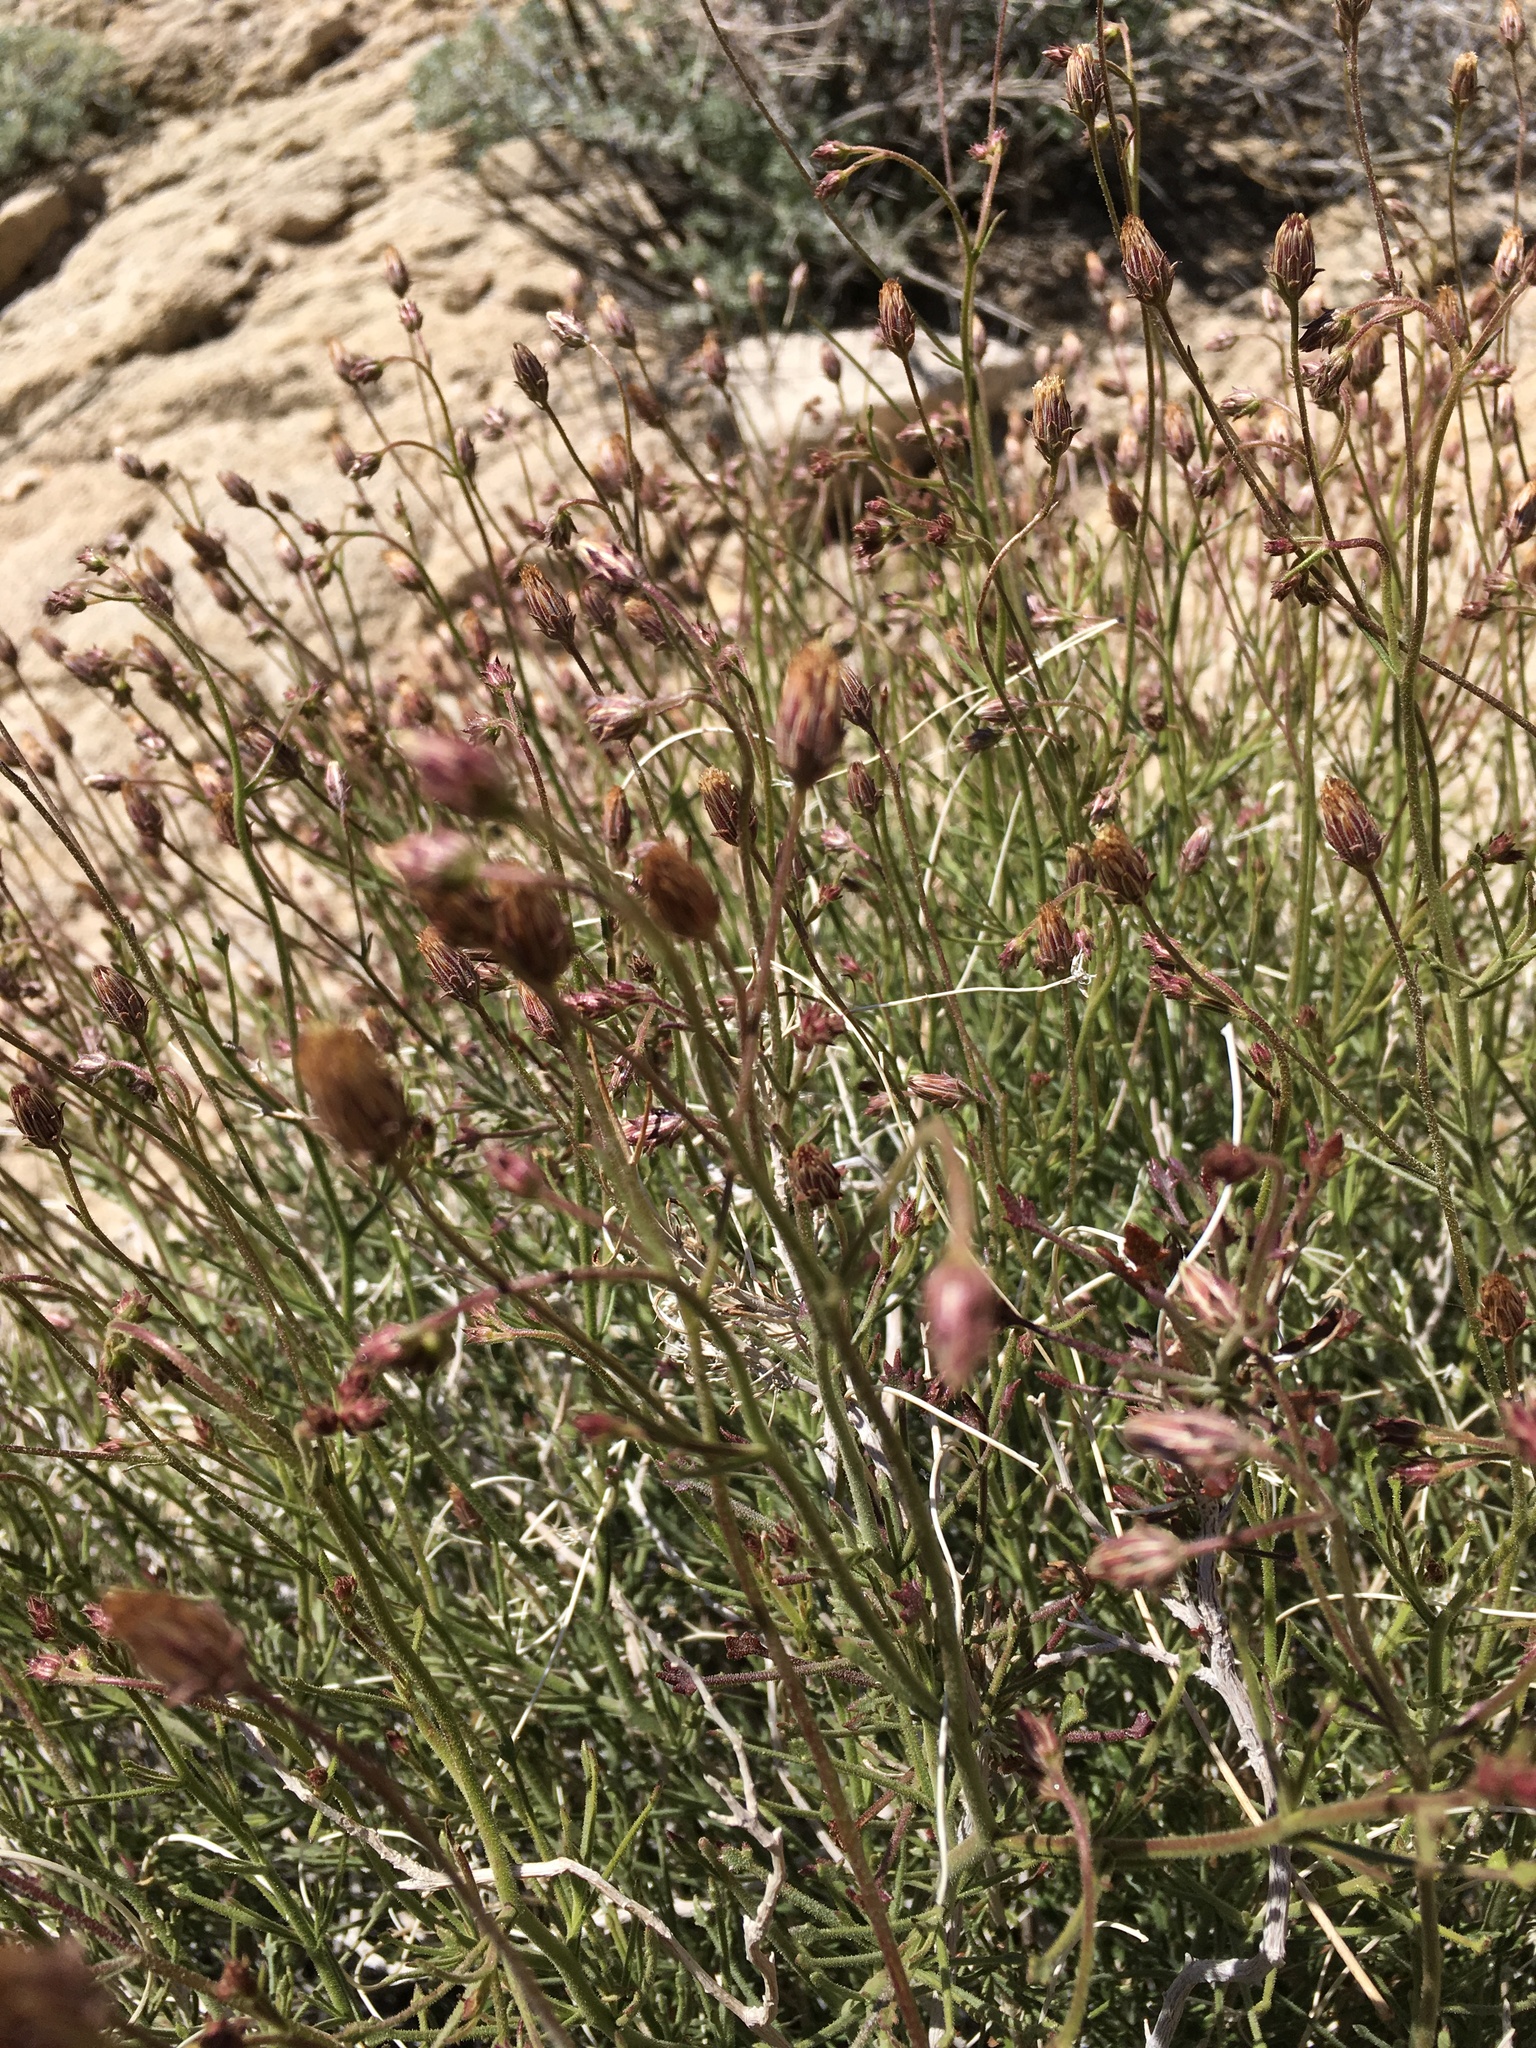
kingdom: Plantae
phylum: Tracheophyta
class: Magnoliopsida
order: Asterales
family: Asteraceae
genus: Pleurocoronis
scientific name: Pleurocoronis pluriseta
